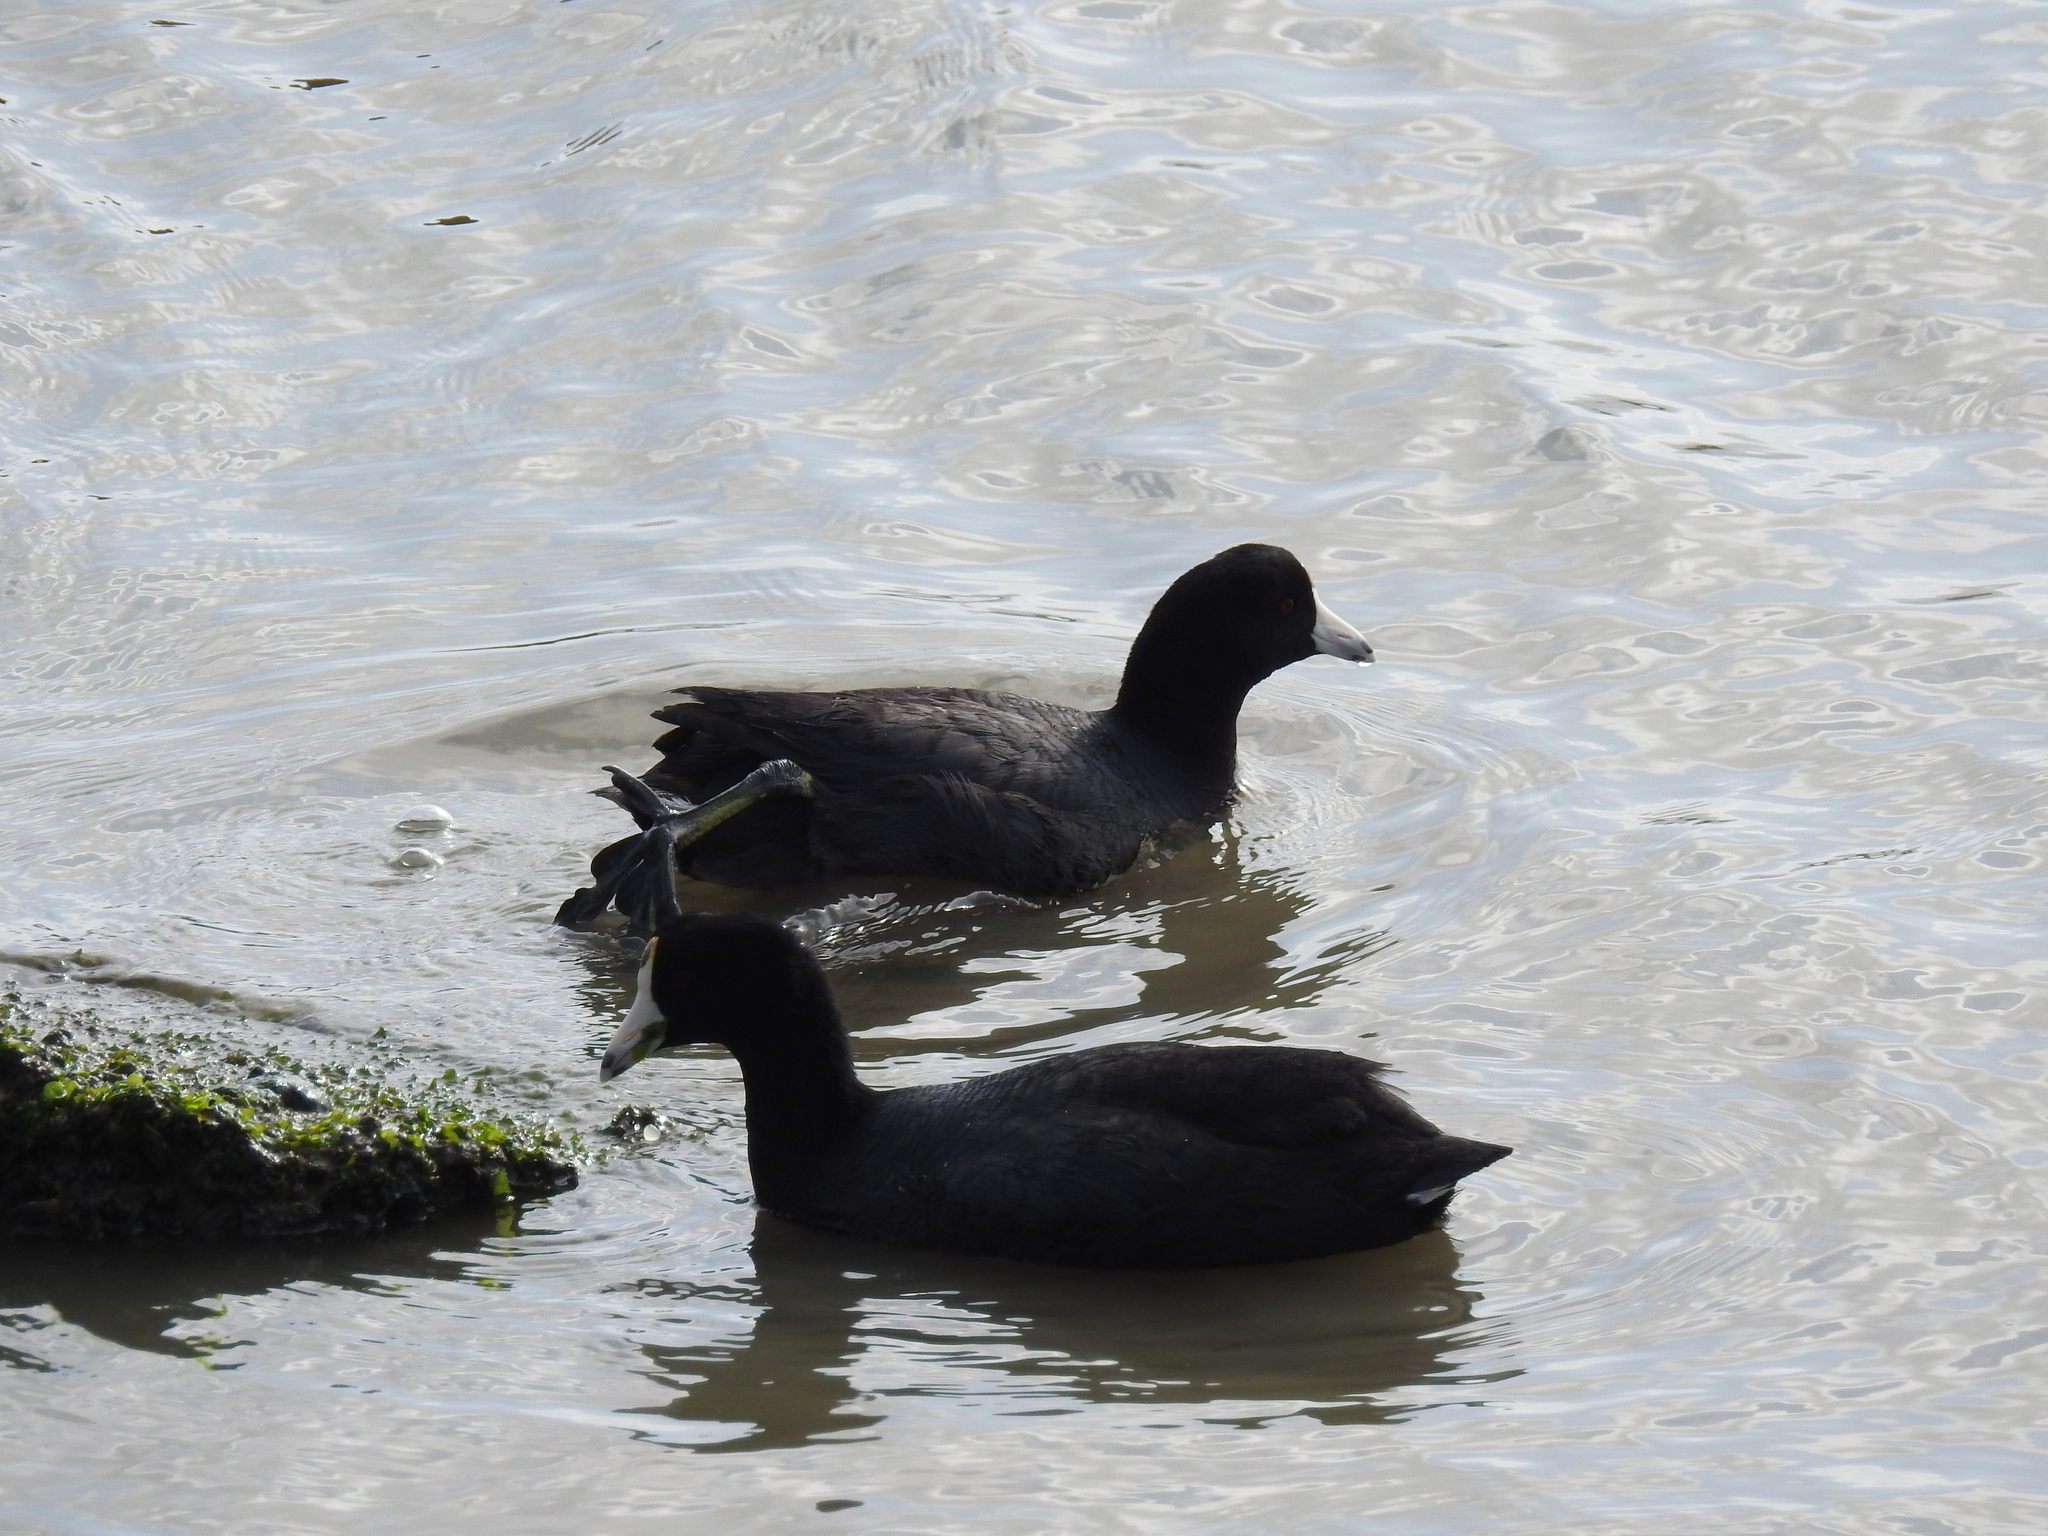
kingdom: Animalia
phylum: Chordata
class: Aves
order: Gruiformes
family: Rallidae
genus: Fulica
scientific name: Fulica americana
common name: American coot
